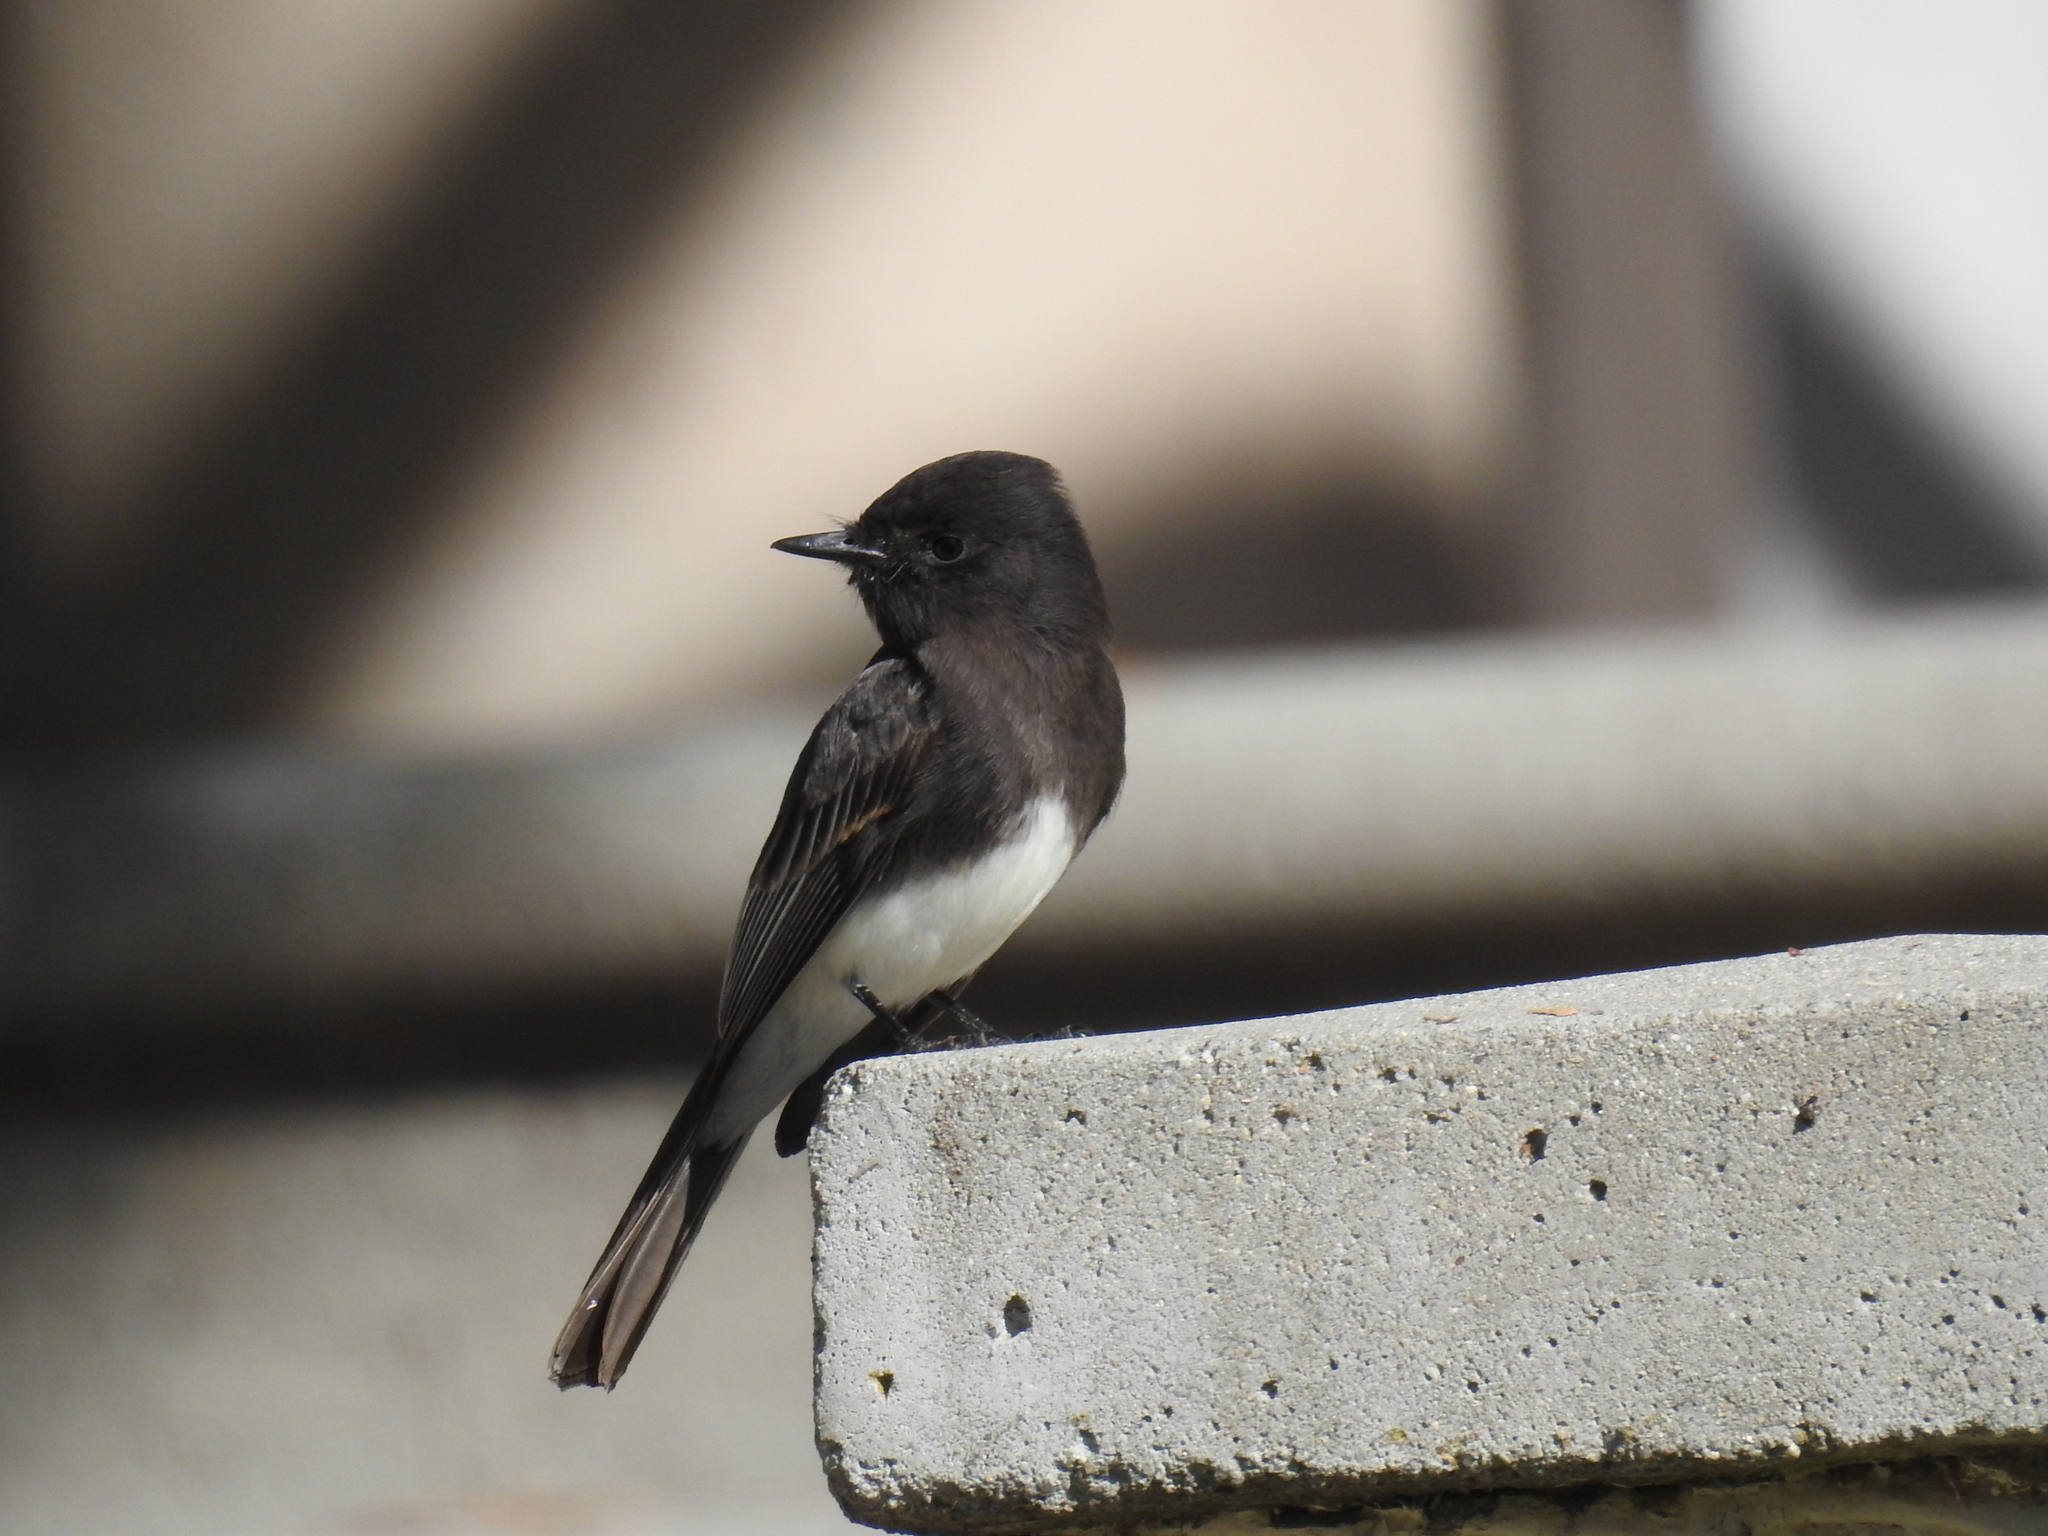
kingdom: Animalia
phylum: Chordata
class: Aves
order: Passeriformes
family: Tyrannidae
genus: Sayornis
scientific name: Sayornis nigricans
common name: Black phoebe
